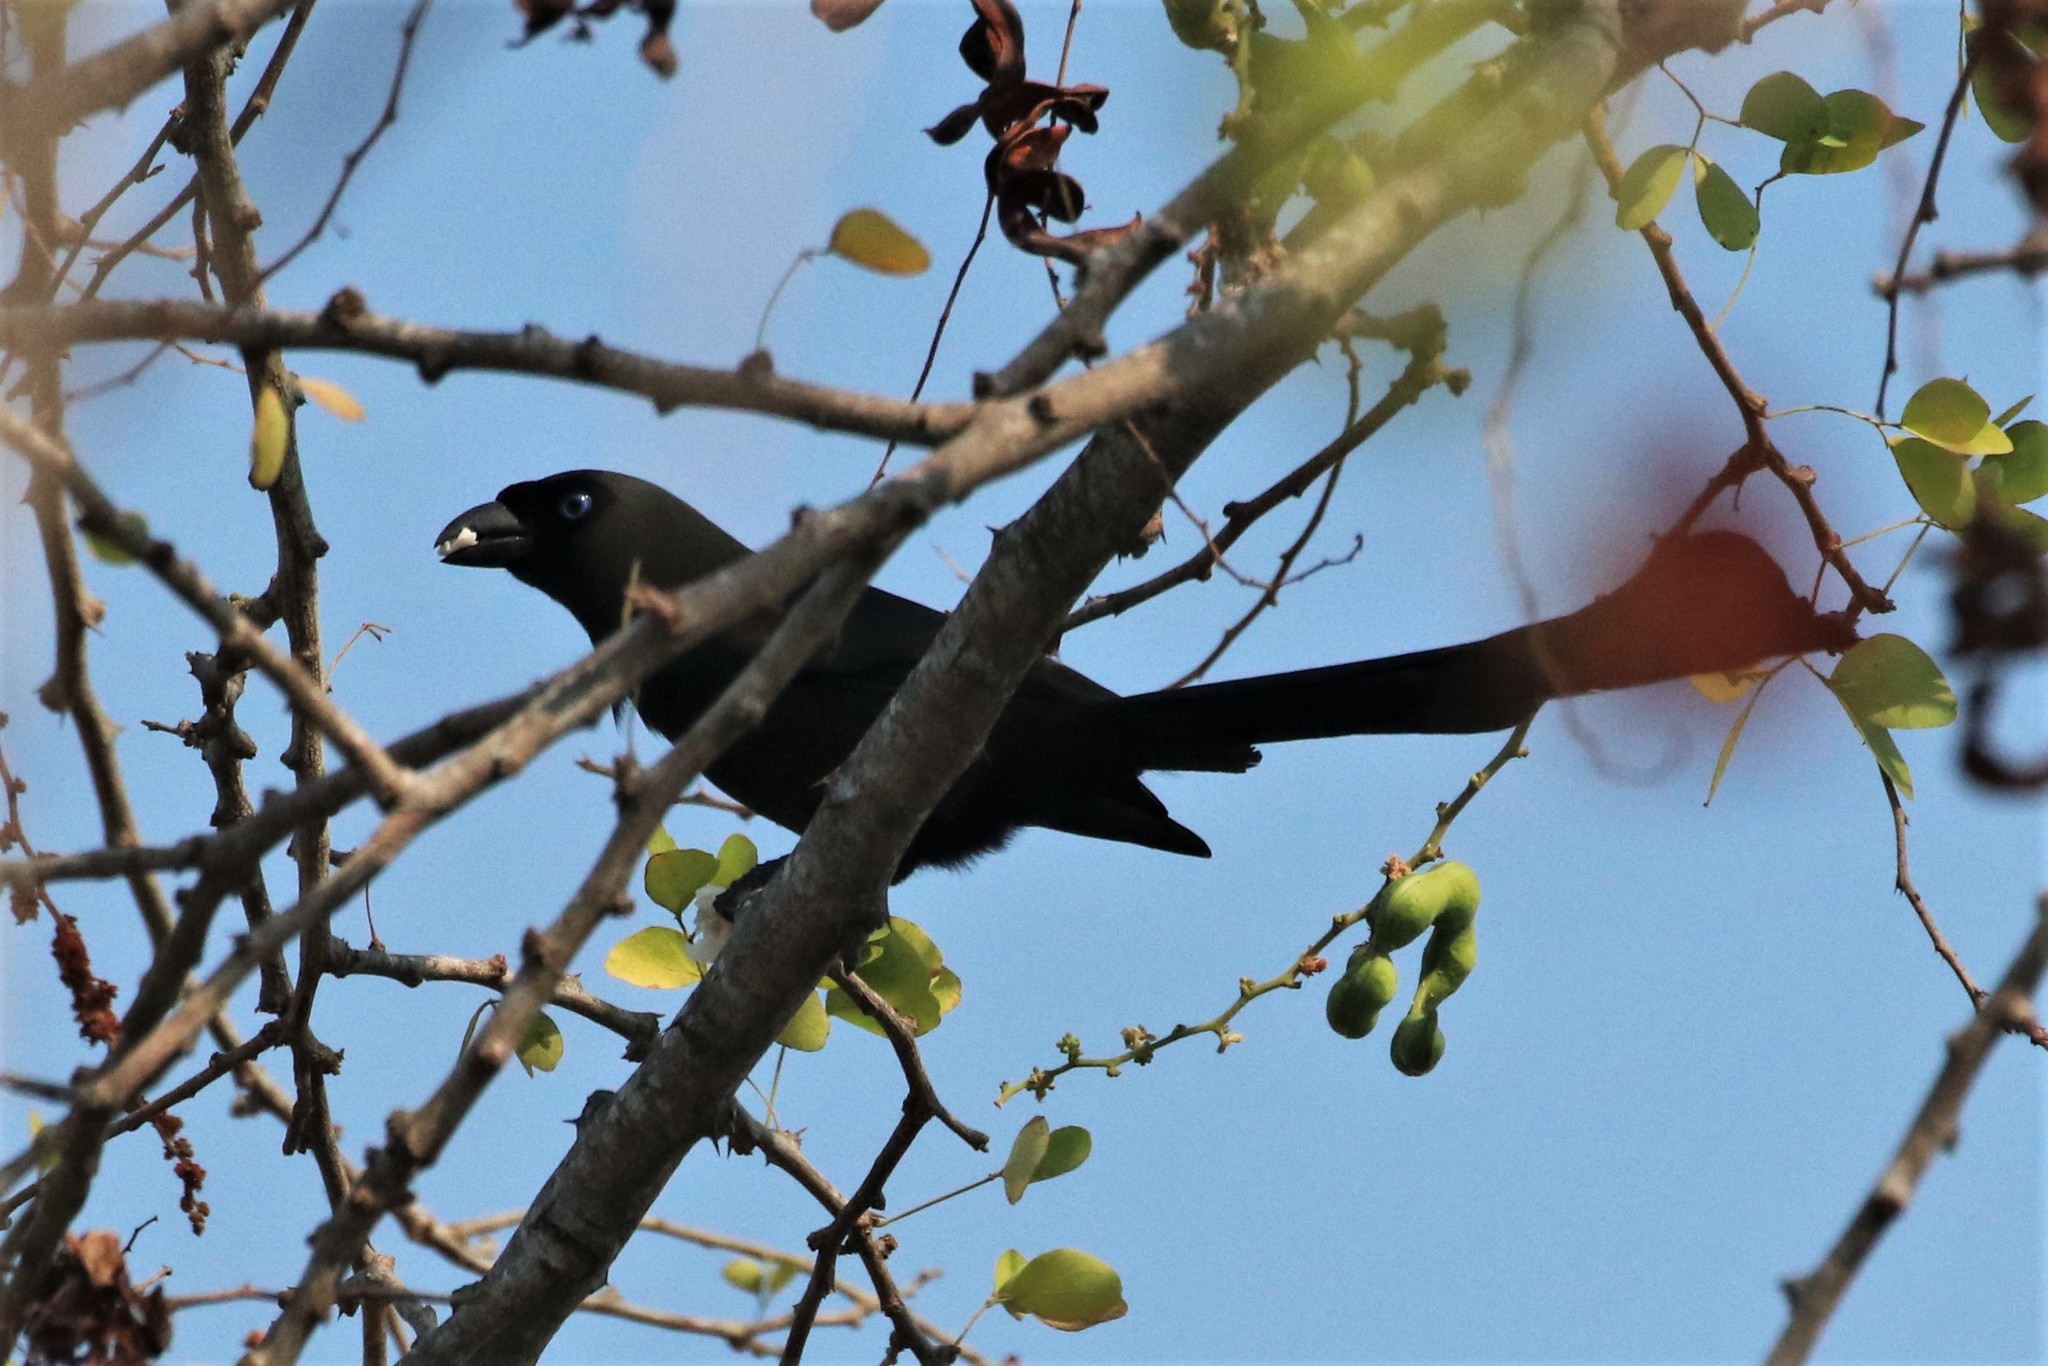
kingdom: Animalia
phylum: Chordata
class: Aves
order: Passeriformes
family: Corvidae
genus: Crypsirina
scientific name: Crypsirina temia
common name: Racket-tailed treepie
